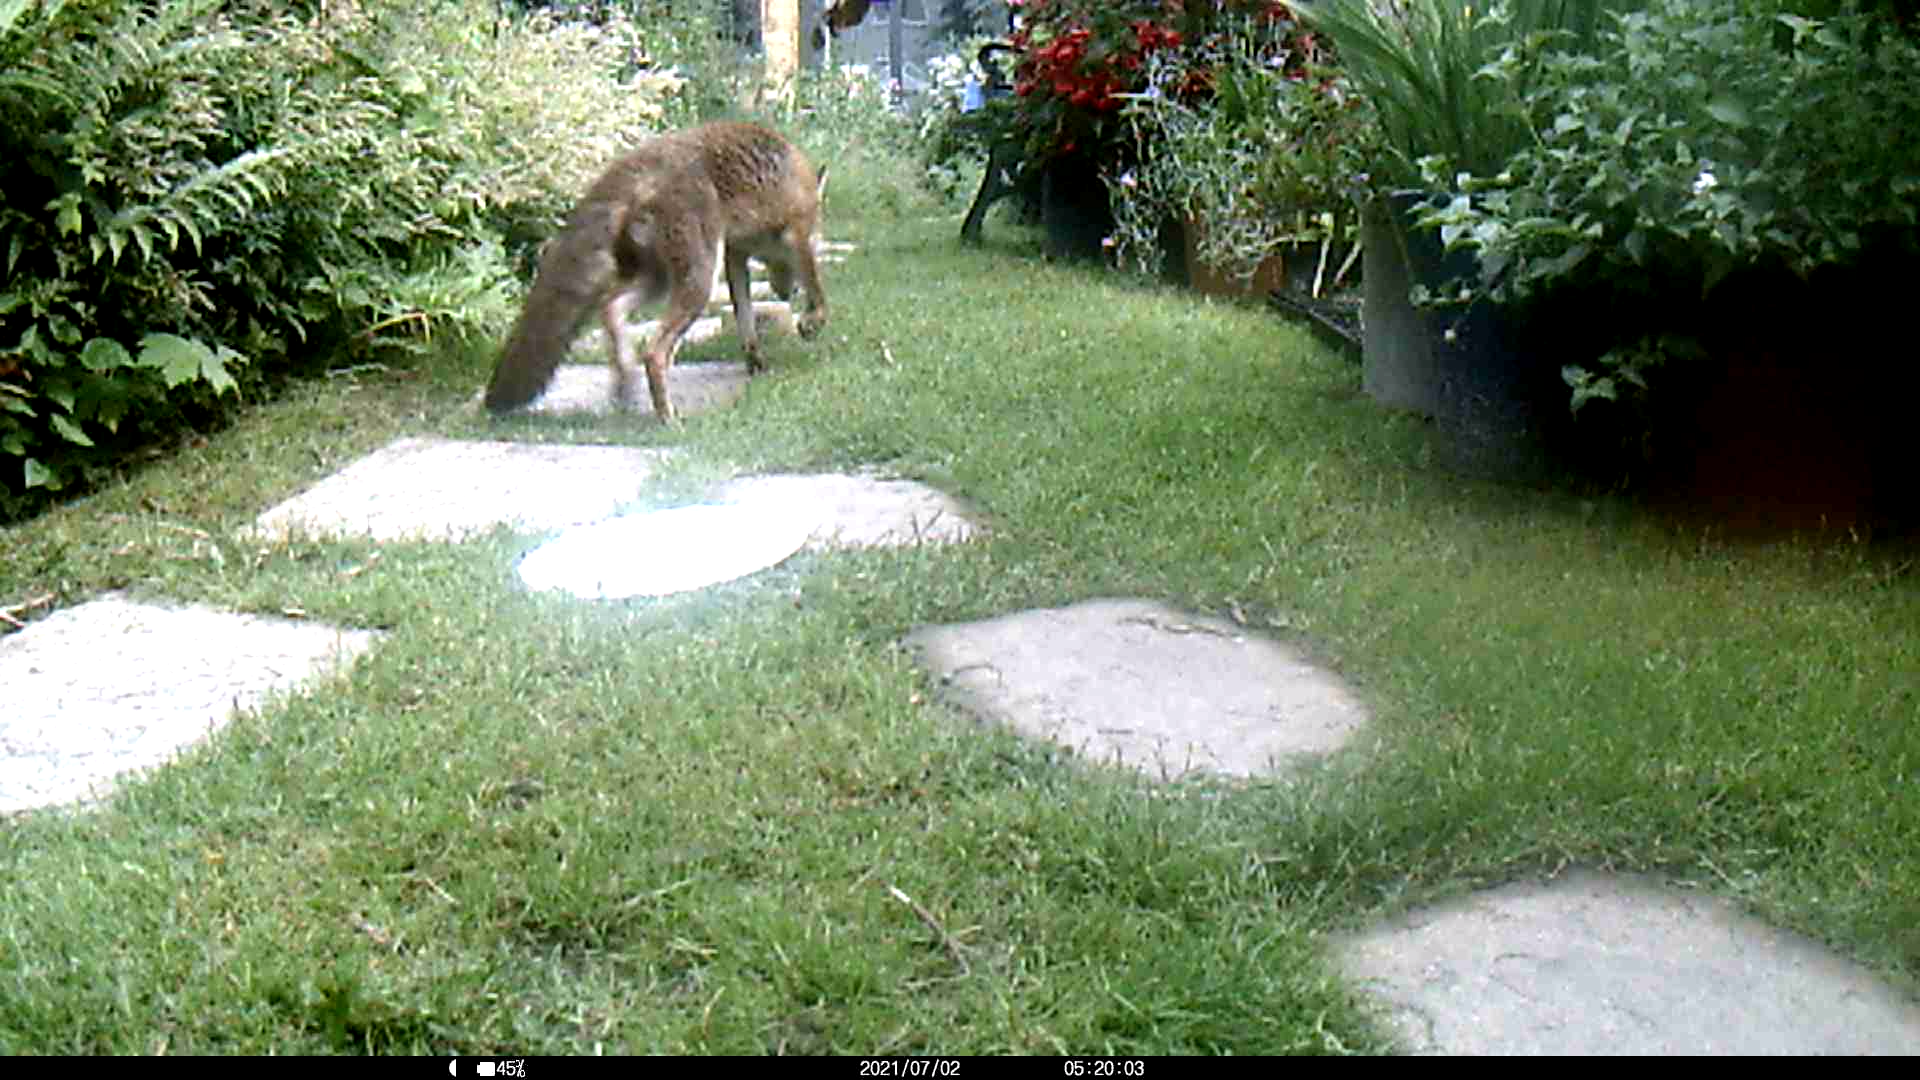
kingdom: Animalia
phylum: Chordata
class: Mammalia
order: Carnivora
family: Canidae
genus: Vulpes
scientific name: Vulpes vulpes
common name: Red fox
